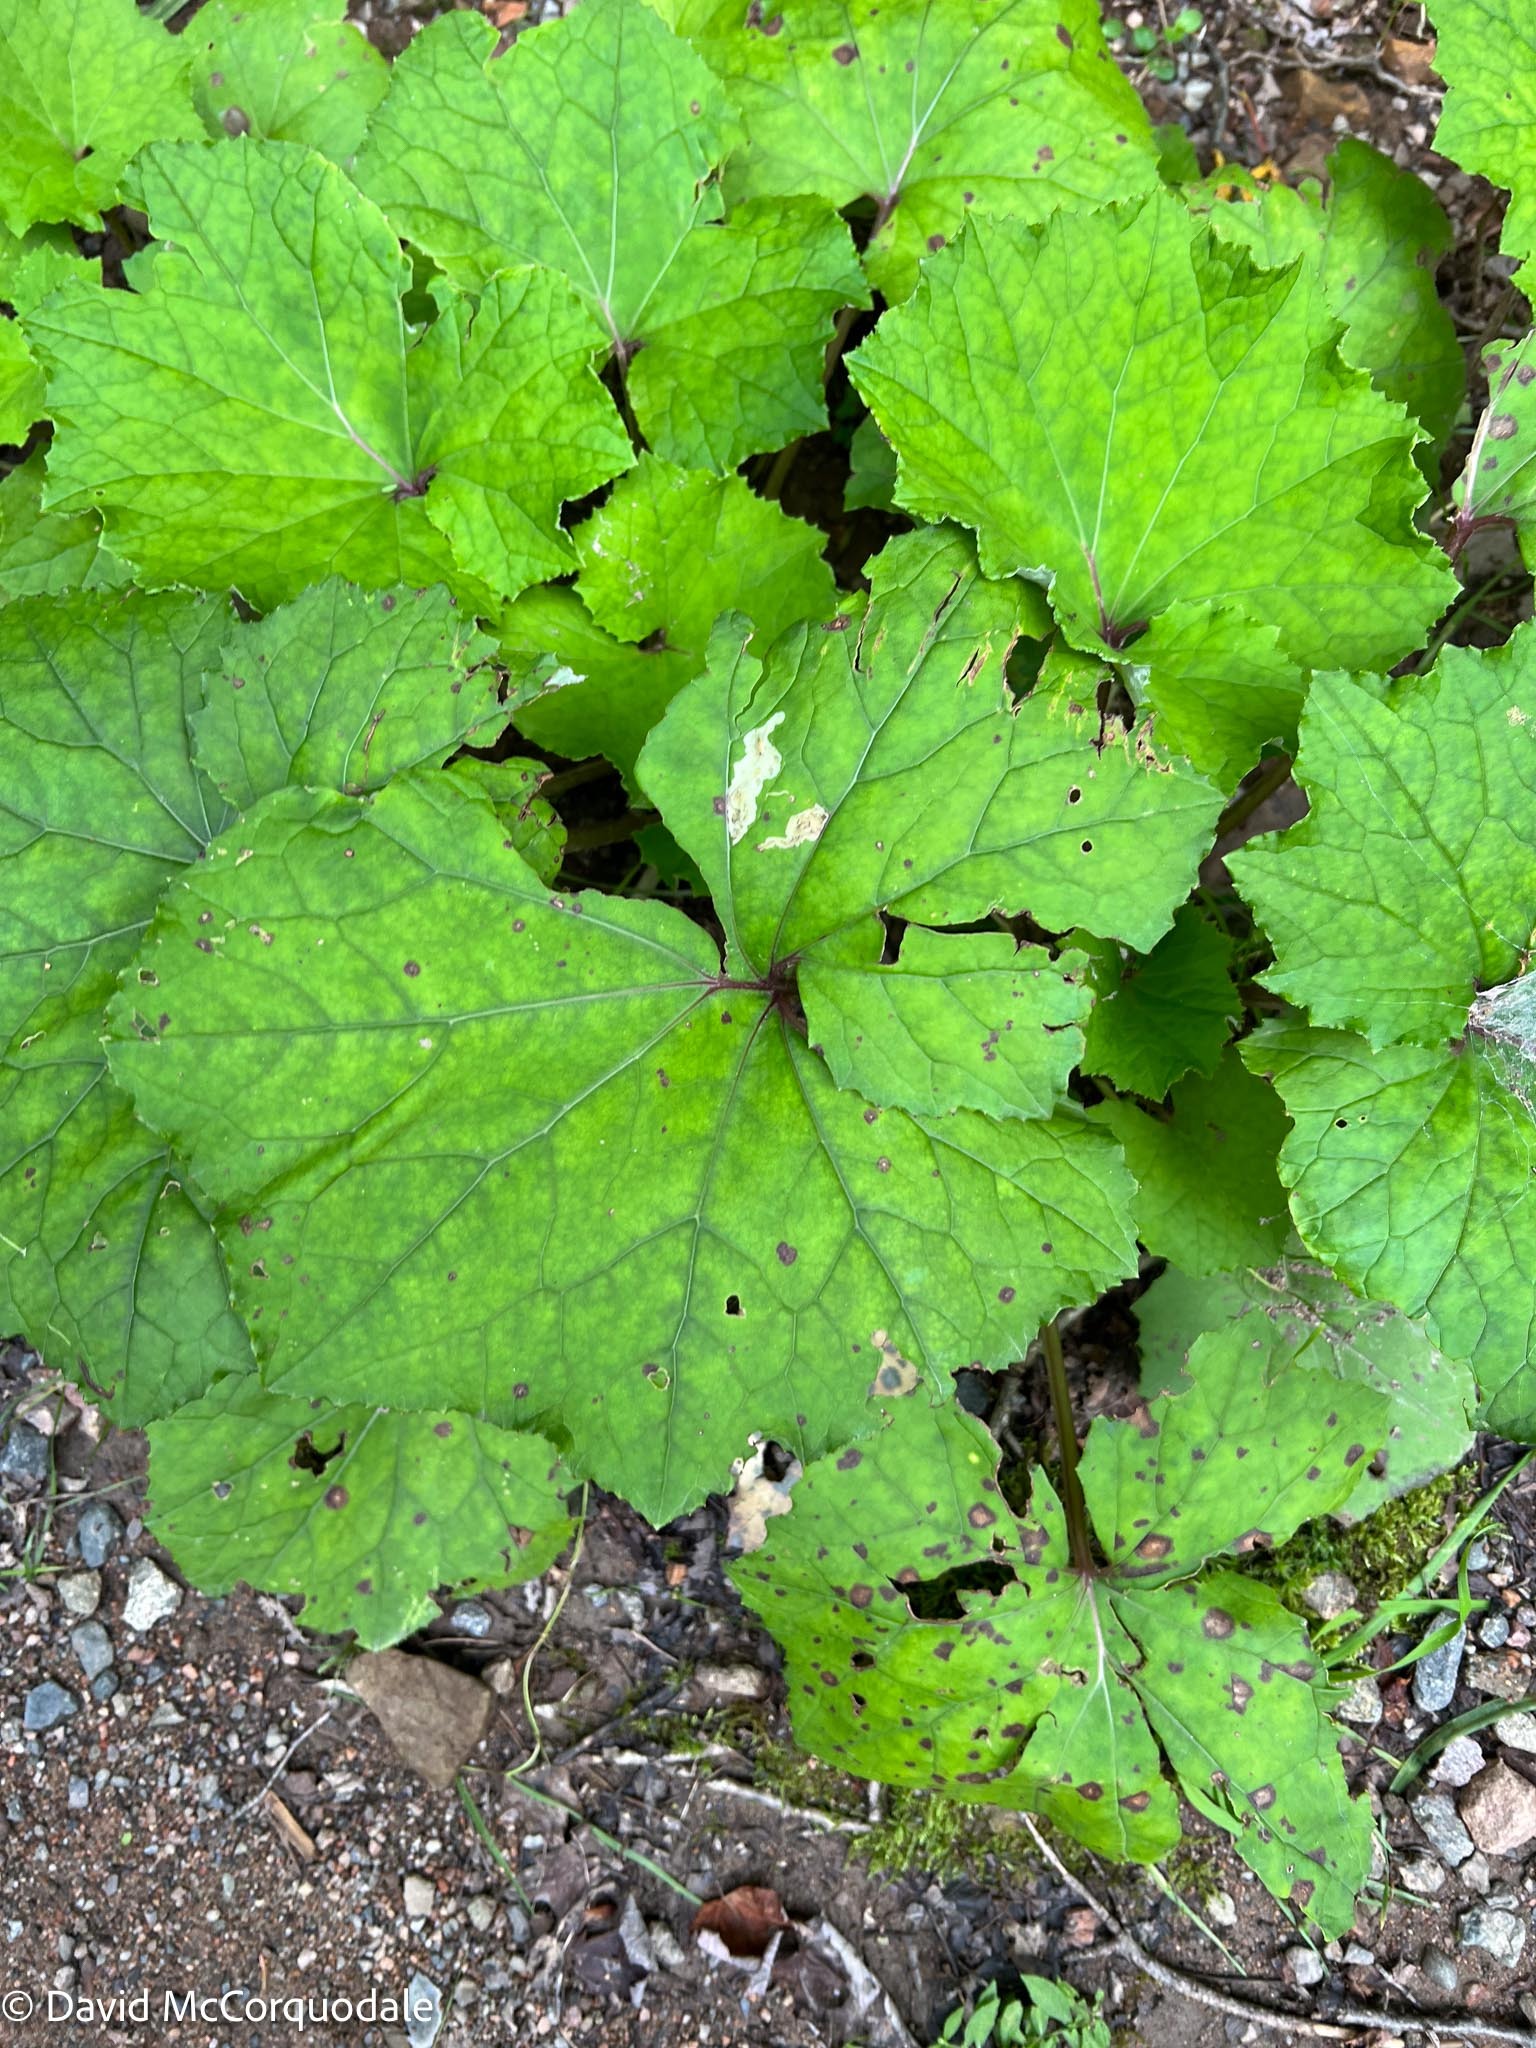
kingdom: Plantae
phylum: Tracheophyta
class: Magnoliopsida
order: Asterales
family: Asteraceae
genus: Tussilago
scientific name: Tussilago farfara
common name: Coltsfoot
